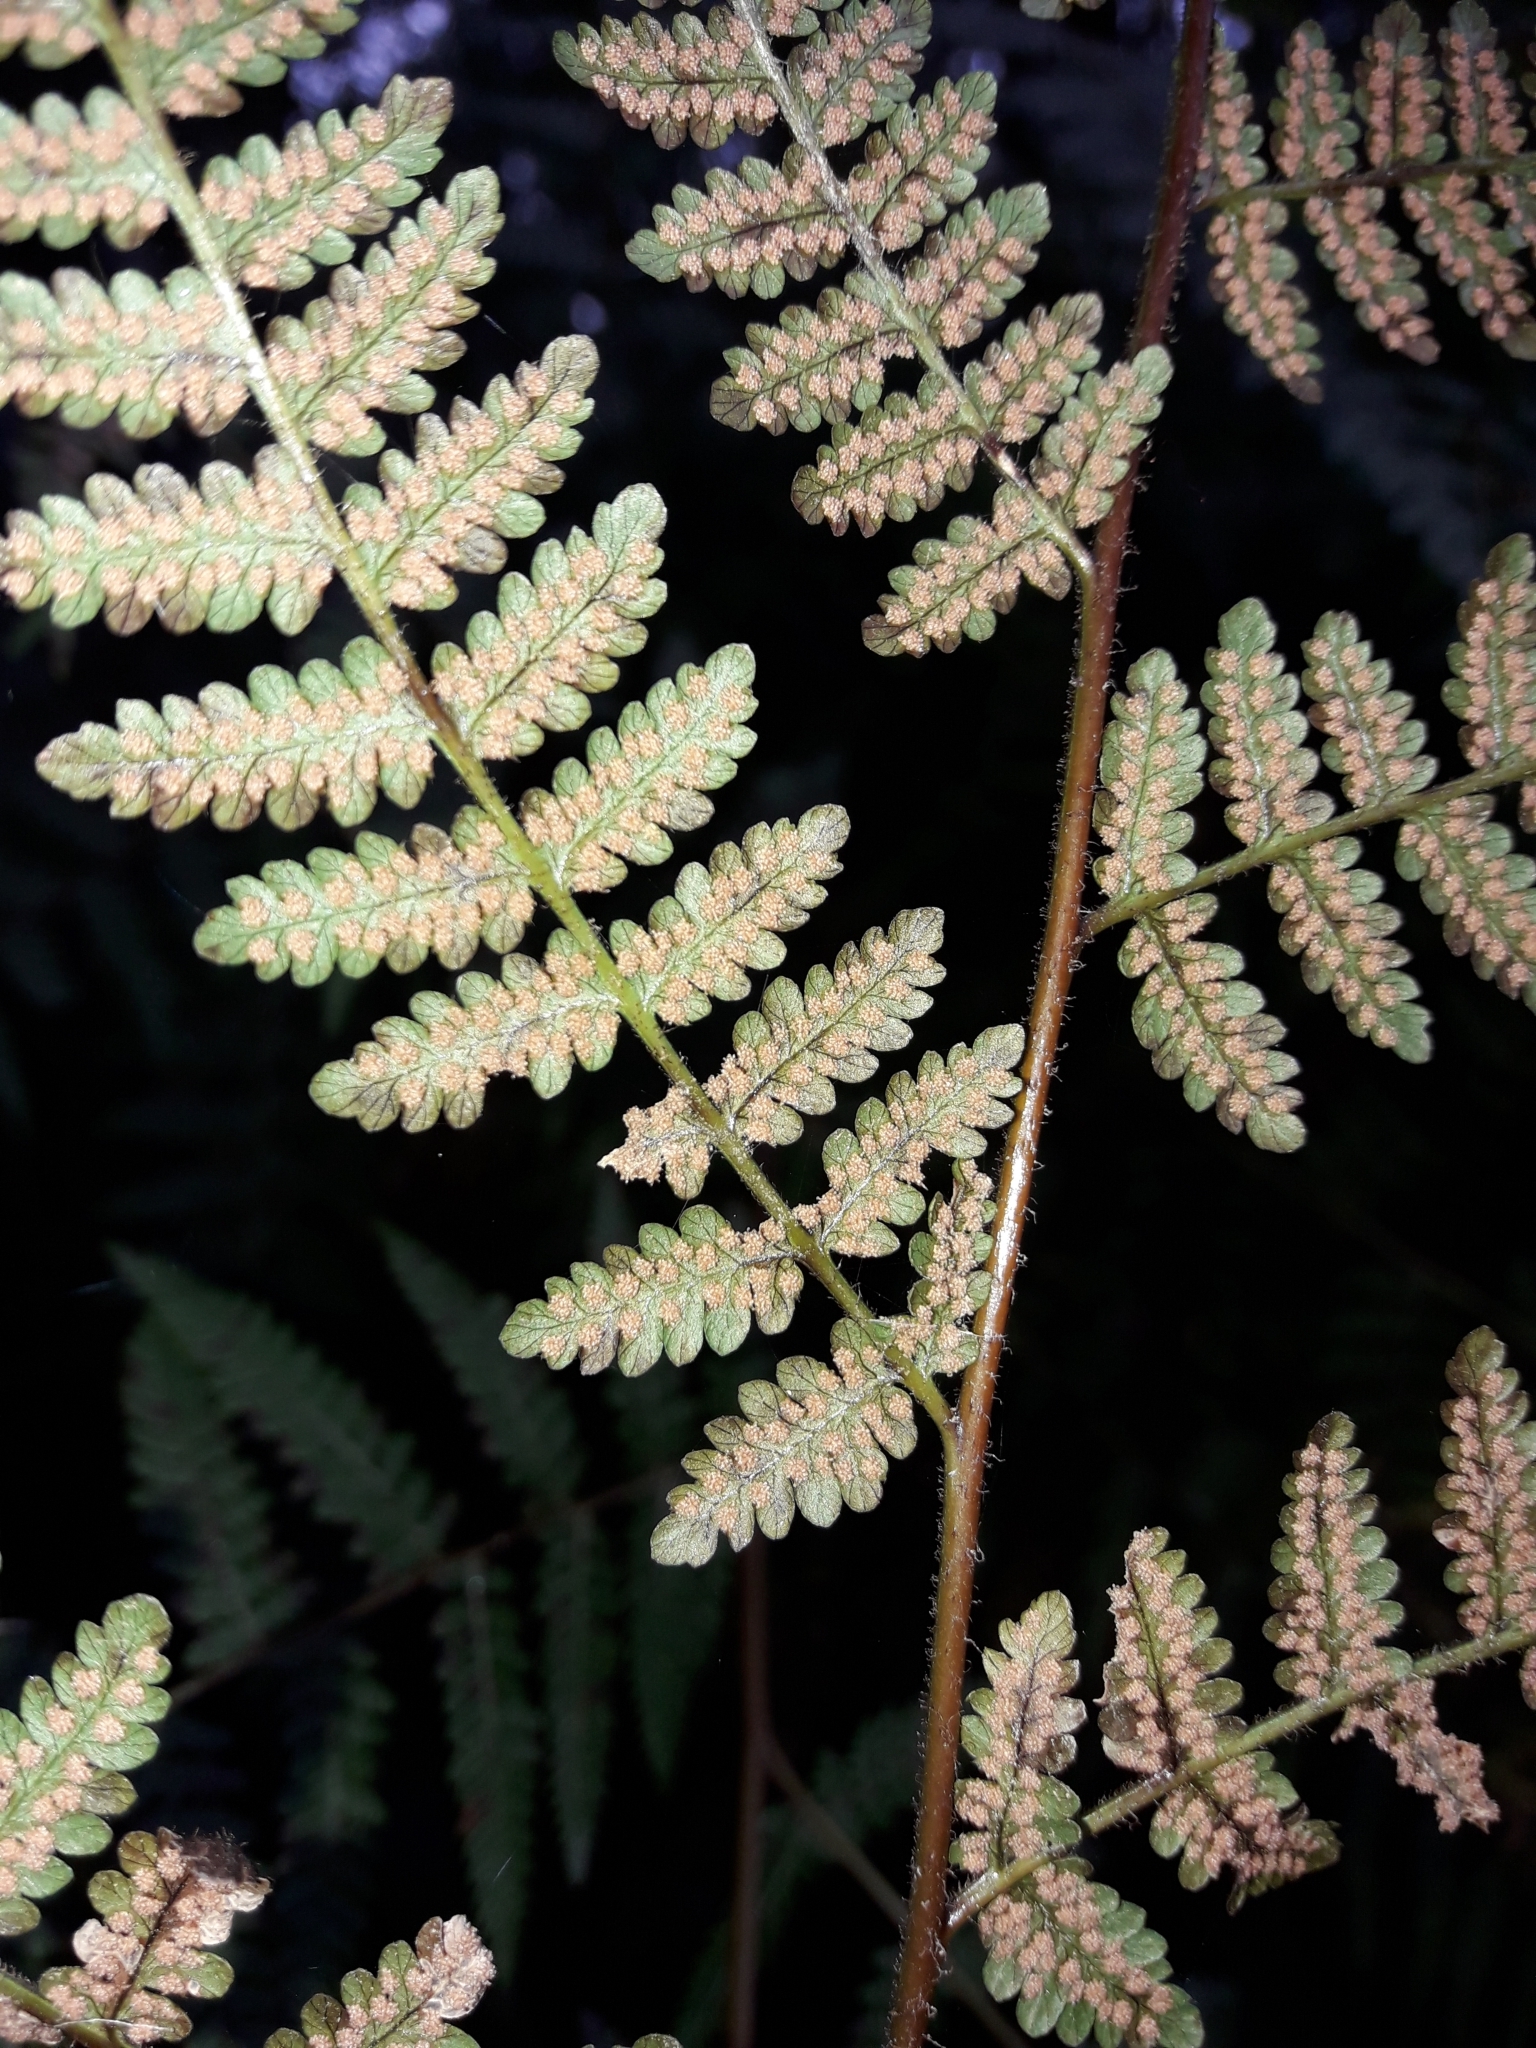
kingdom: Plantae
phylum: Tracheophyta
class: Polypodiopsida
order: Polypodiales
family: Dennstaedtiaceae
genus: Hypolepis
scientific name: Hypolepis ambigua
